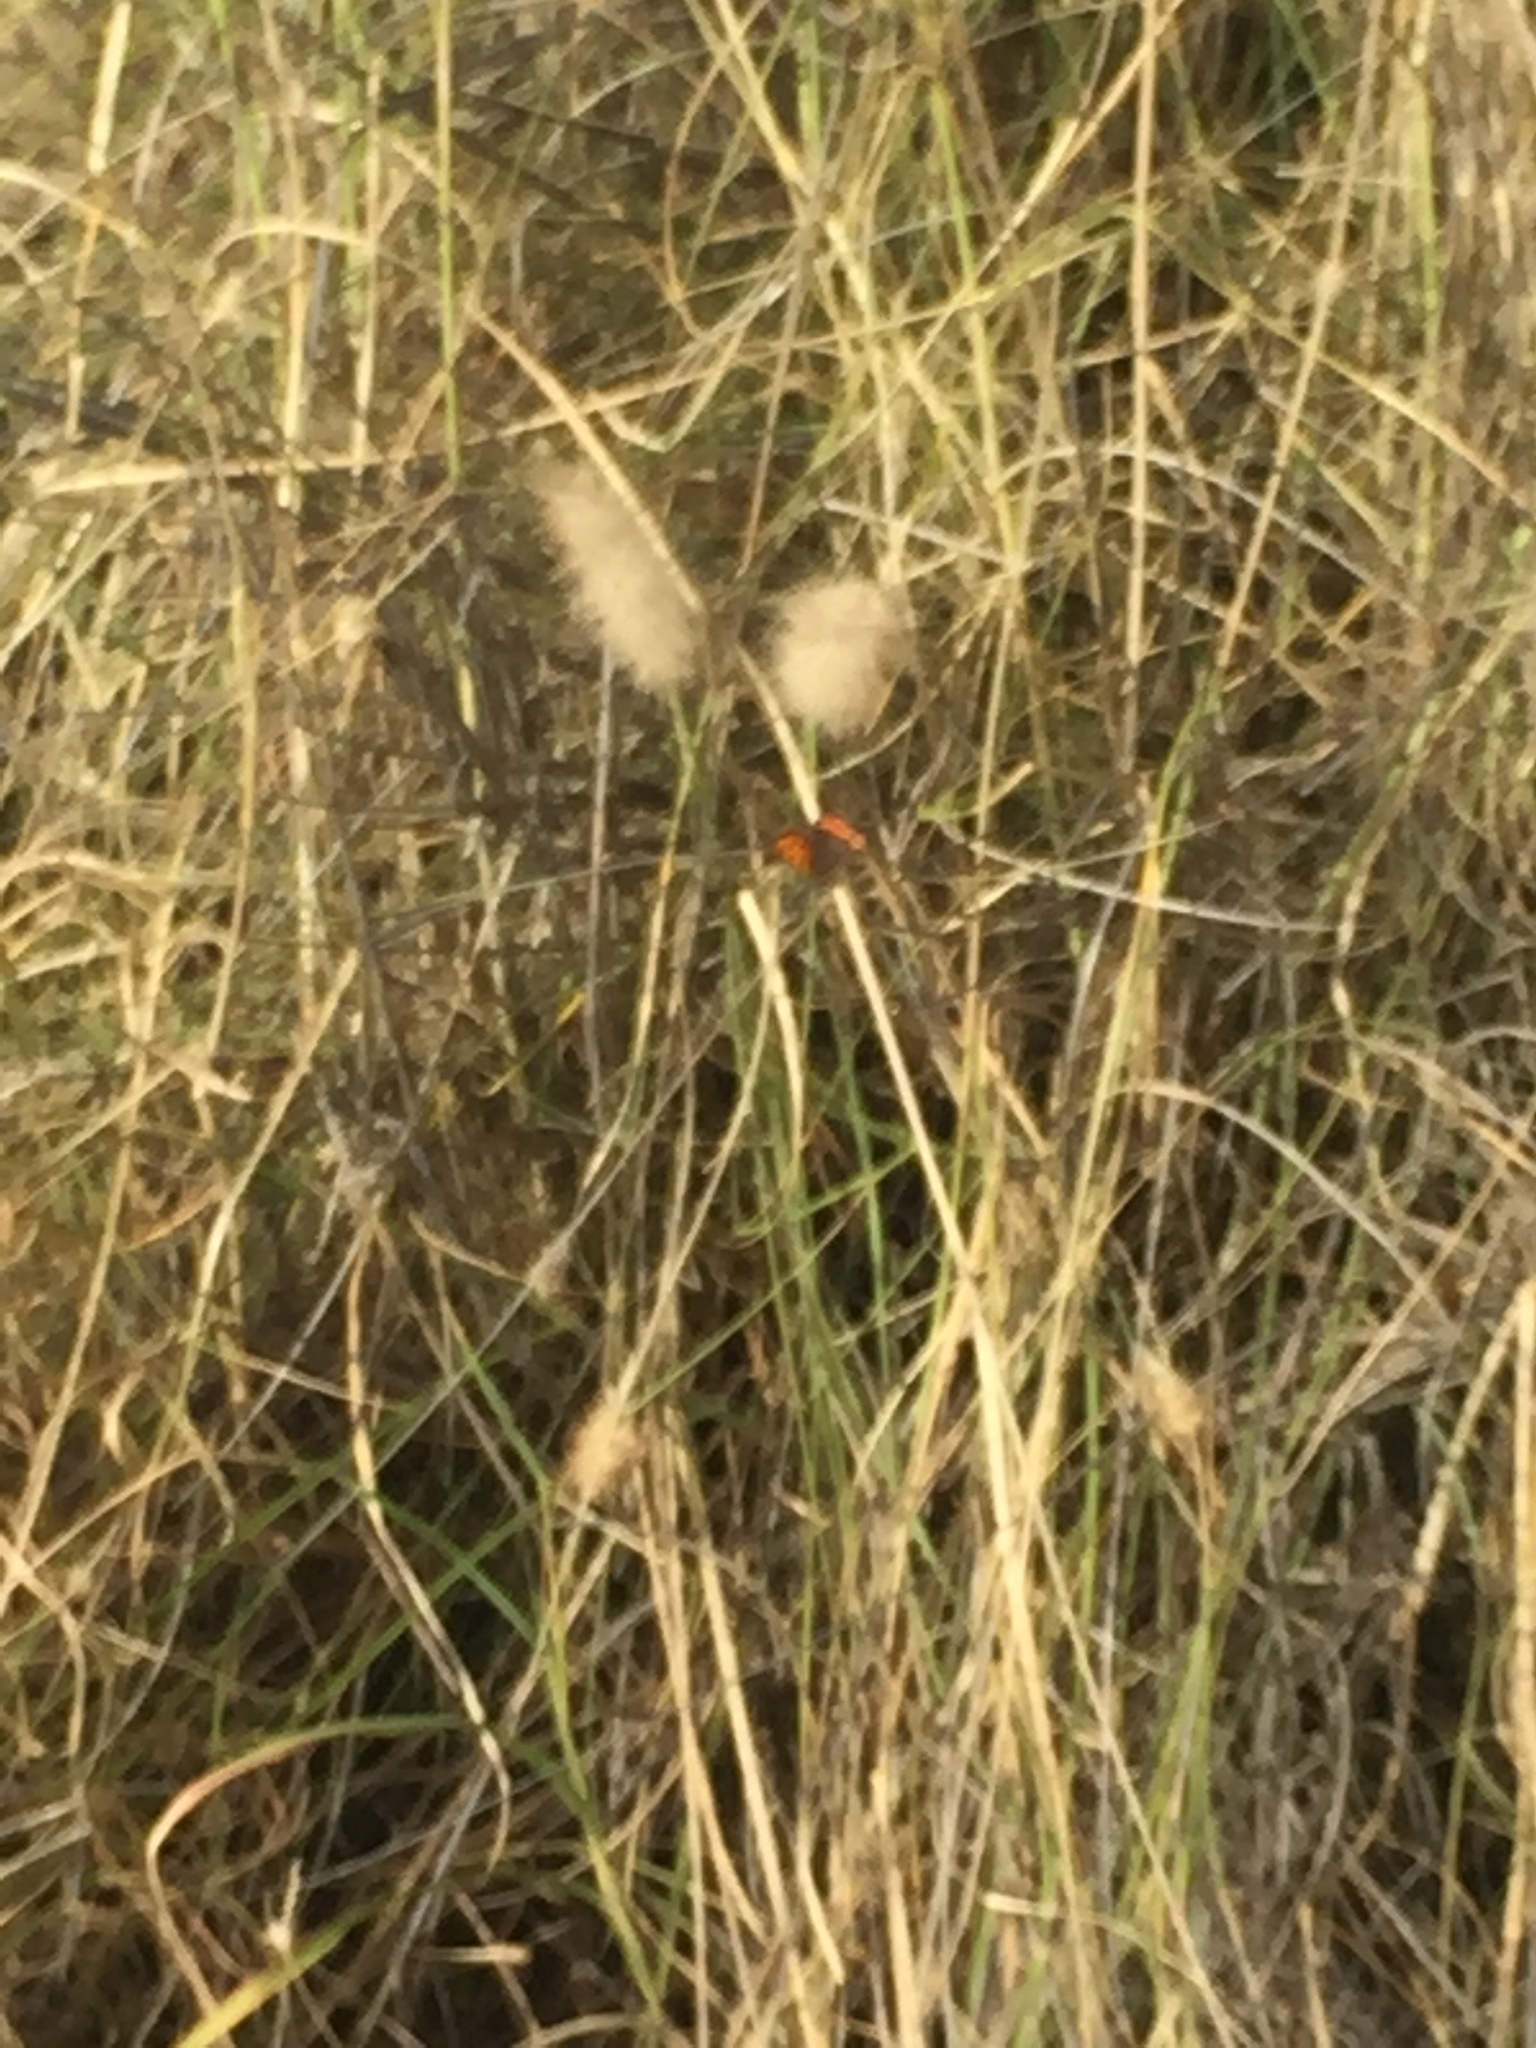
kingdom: Animalia
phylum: Arthropoda
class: Insecta
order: Lepidoptera
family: Lycaenidae
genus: Lycaena
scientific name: Lycaena phlaeas
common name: Small copper
